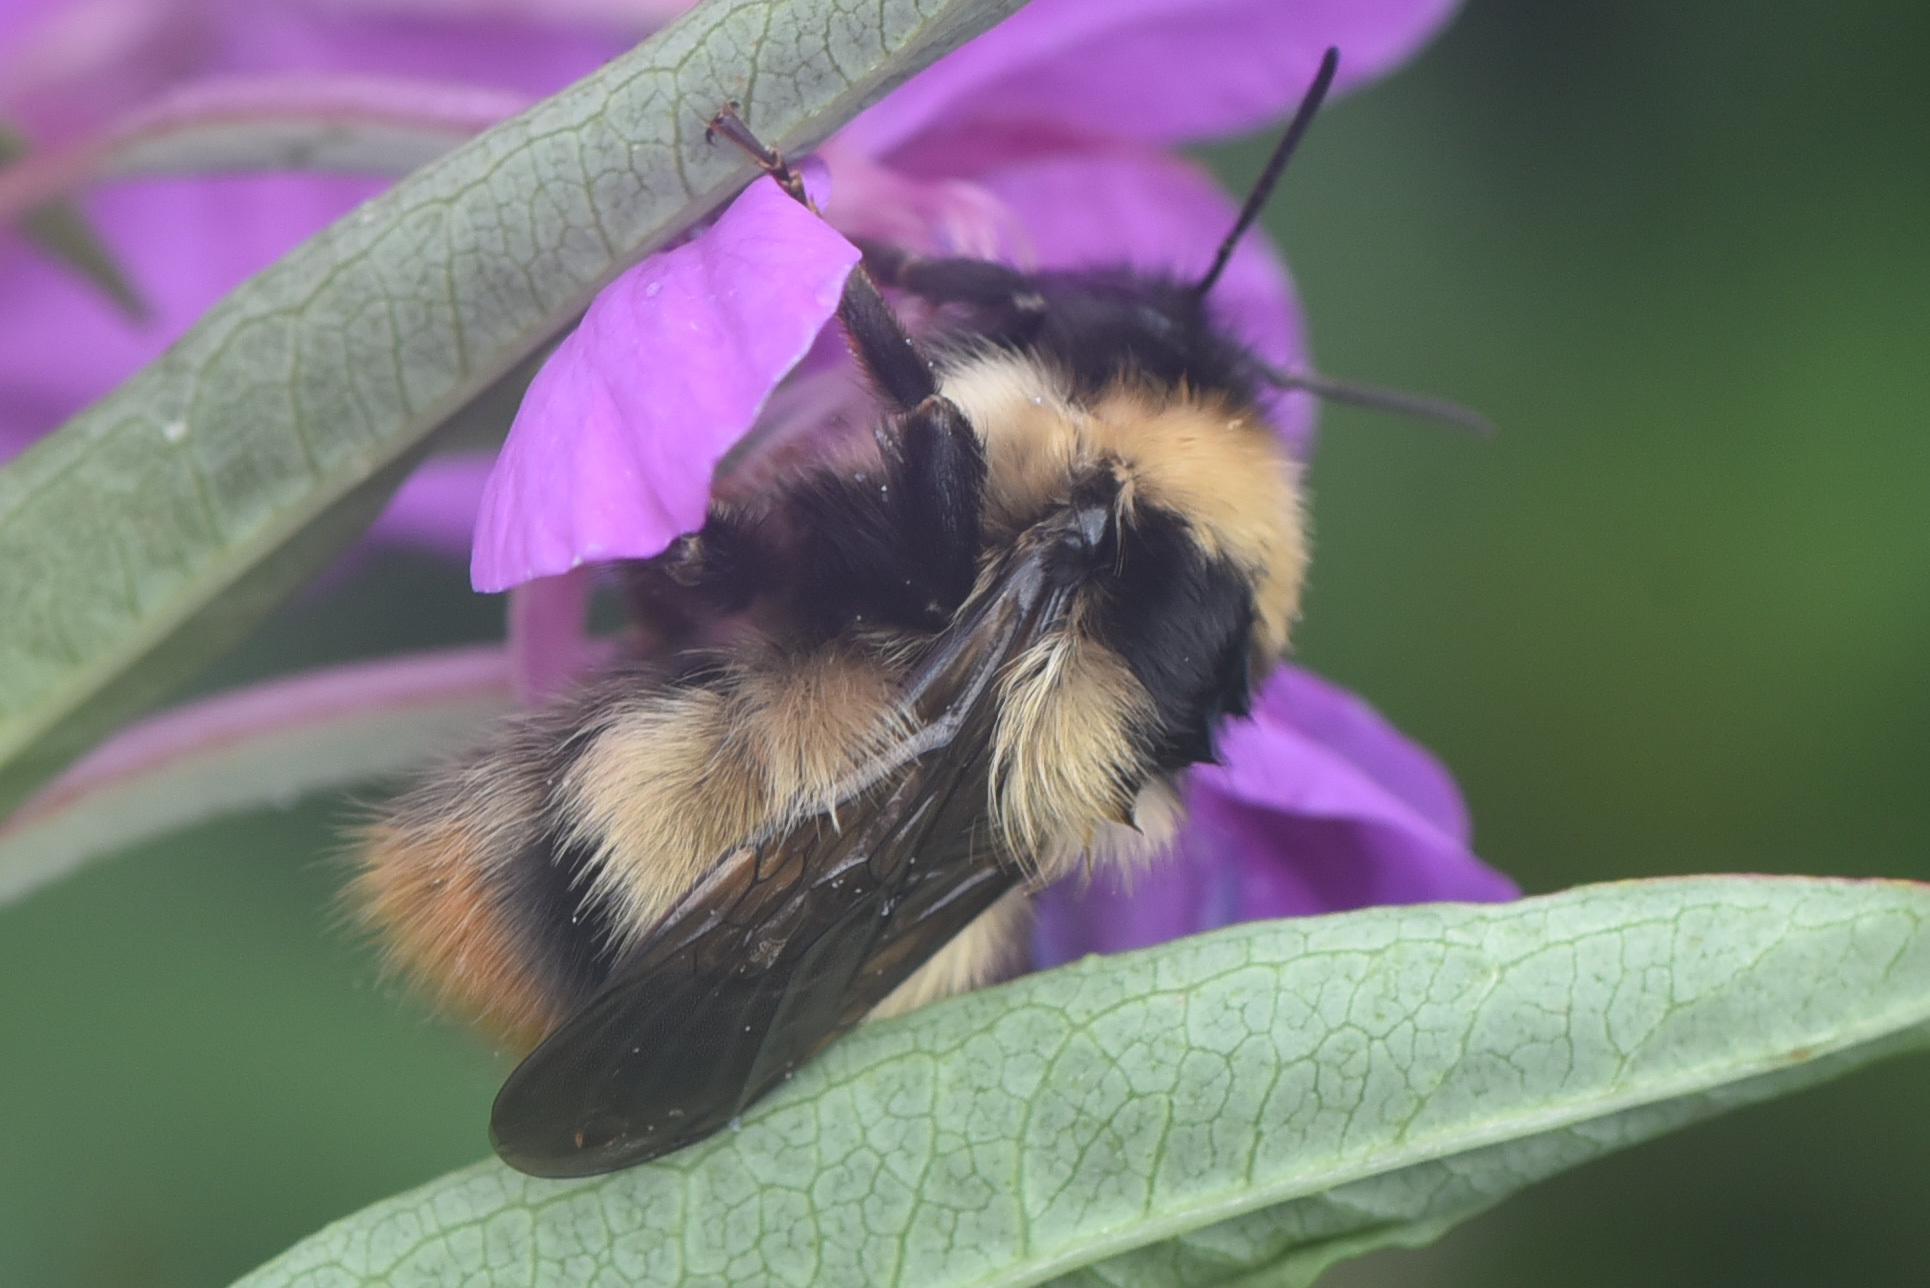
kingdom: Animalia
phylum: Arthropoda
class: Insecta
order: Hymenoptera
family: Apidae
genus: Bombus
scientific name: Bombus kirbiellus
